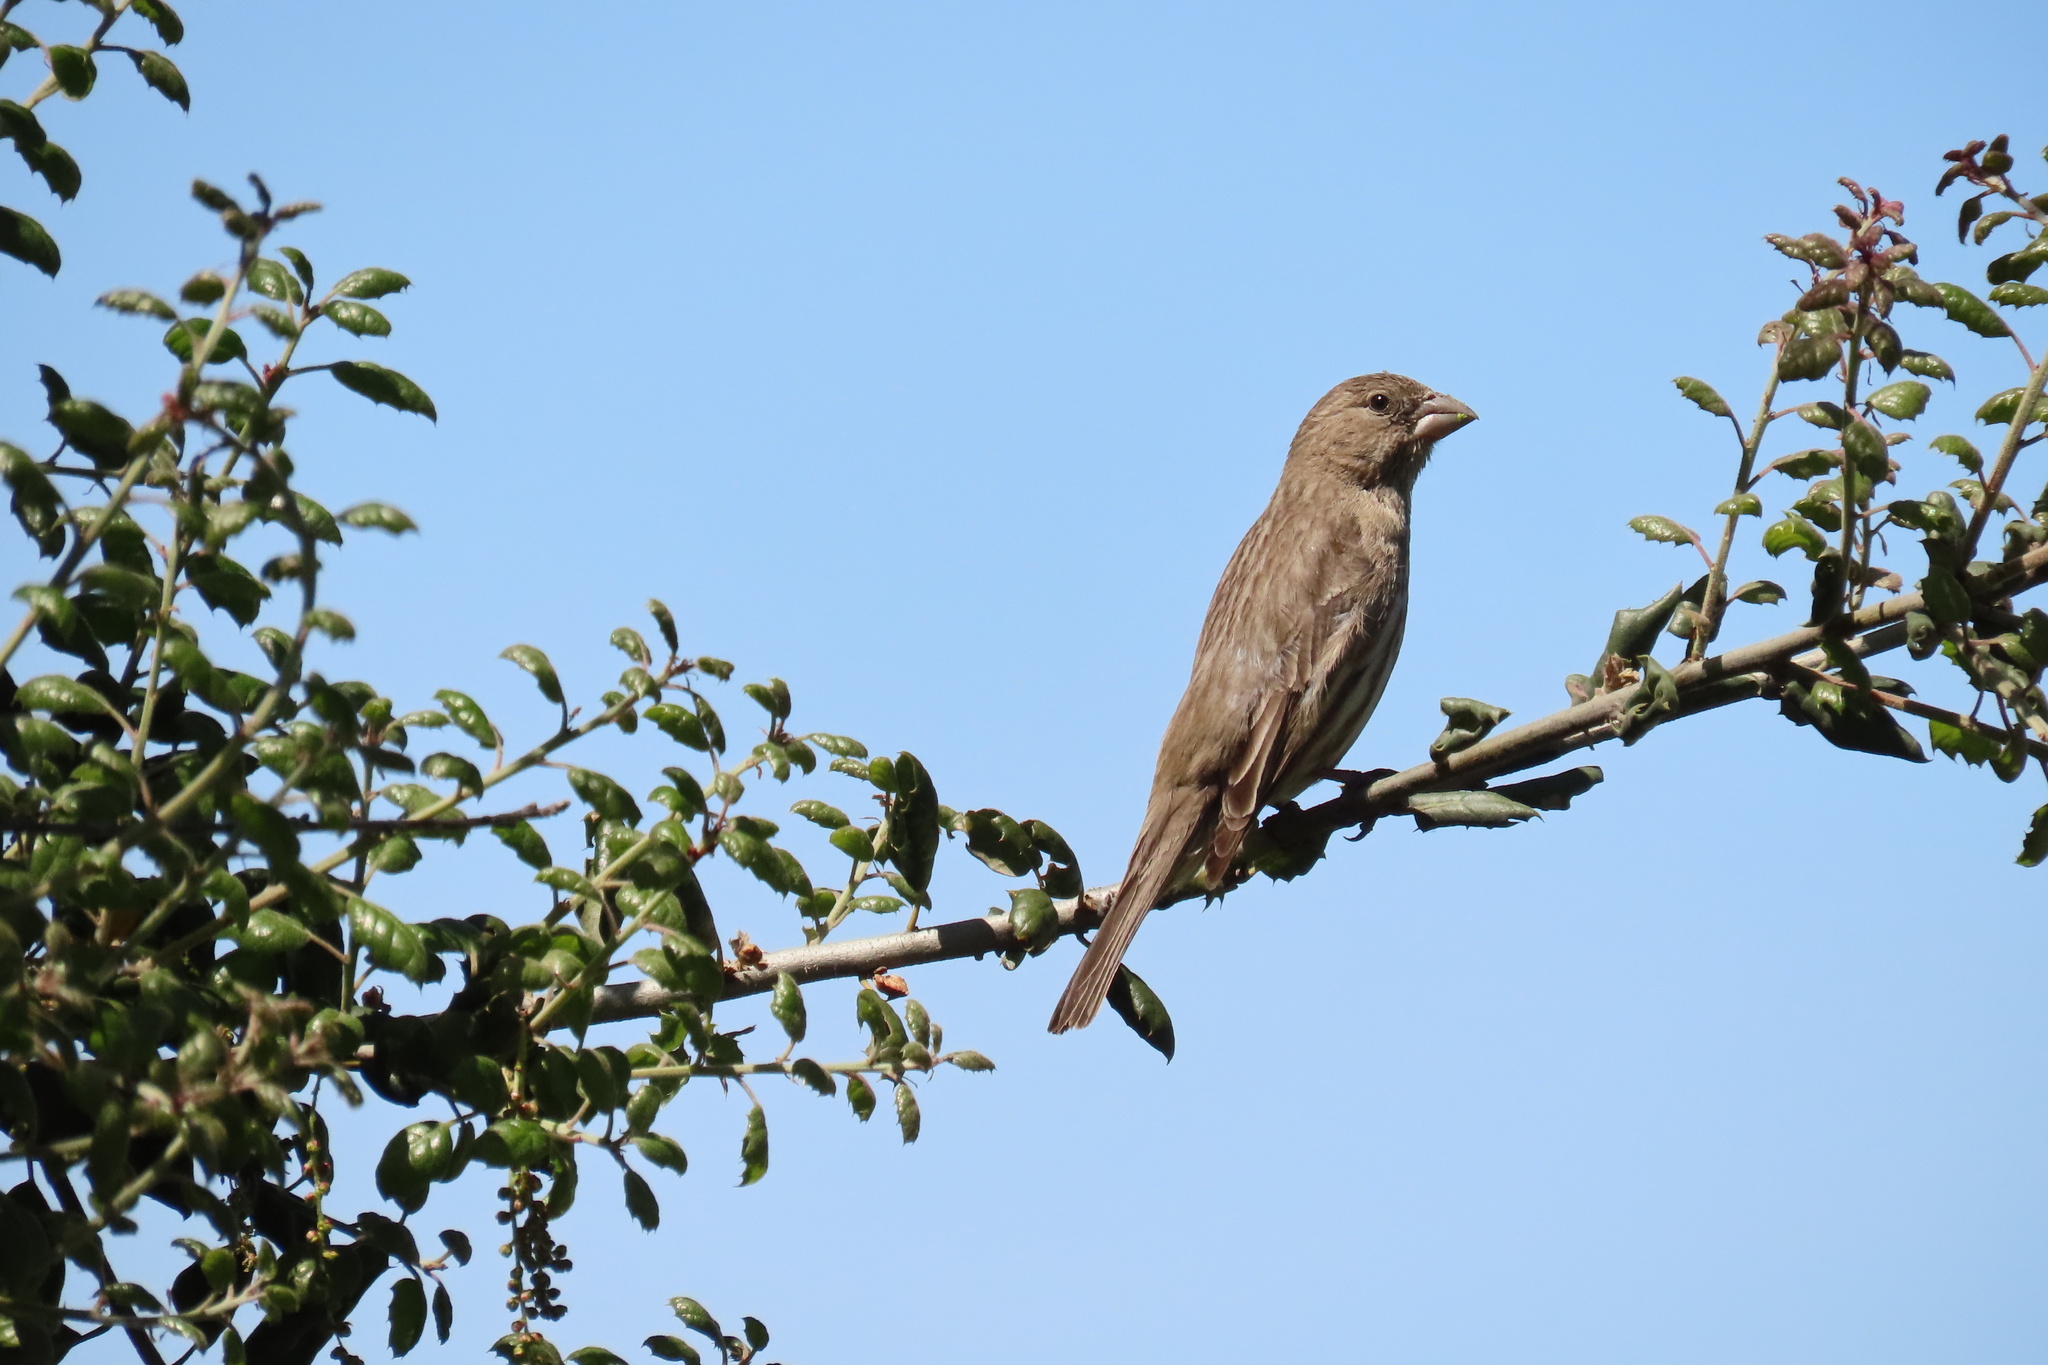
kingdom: Animalia
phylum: Chordata
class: Aves
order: Passeriformes
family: Fringillidae
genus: Haemorhous
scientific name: Haemorhous mexicanus
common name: House finch
